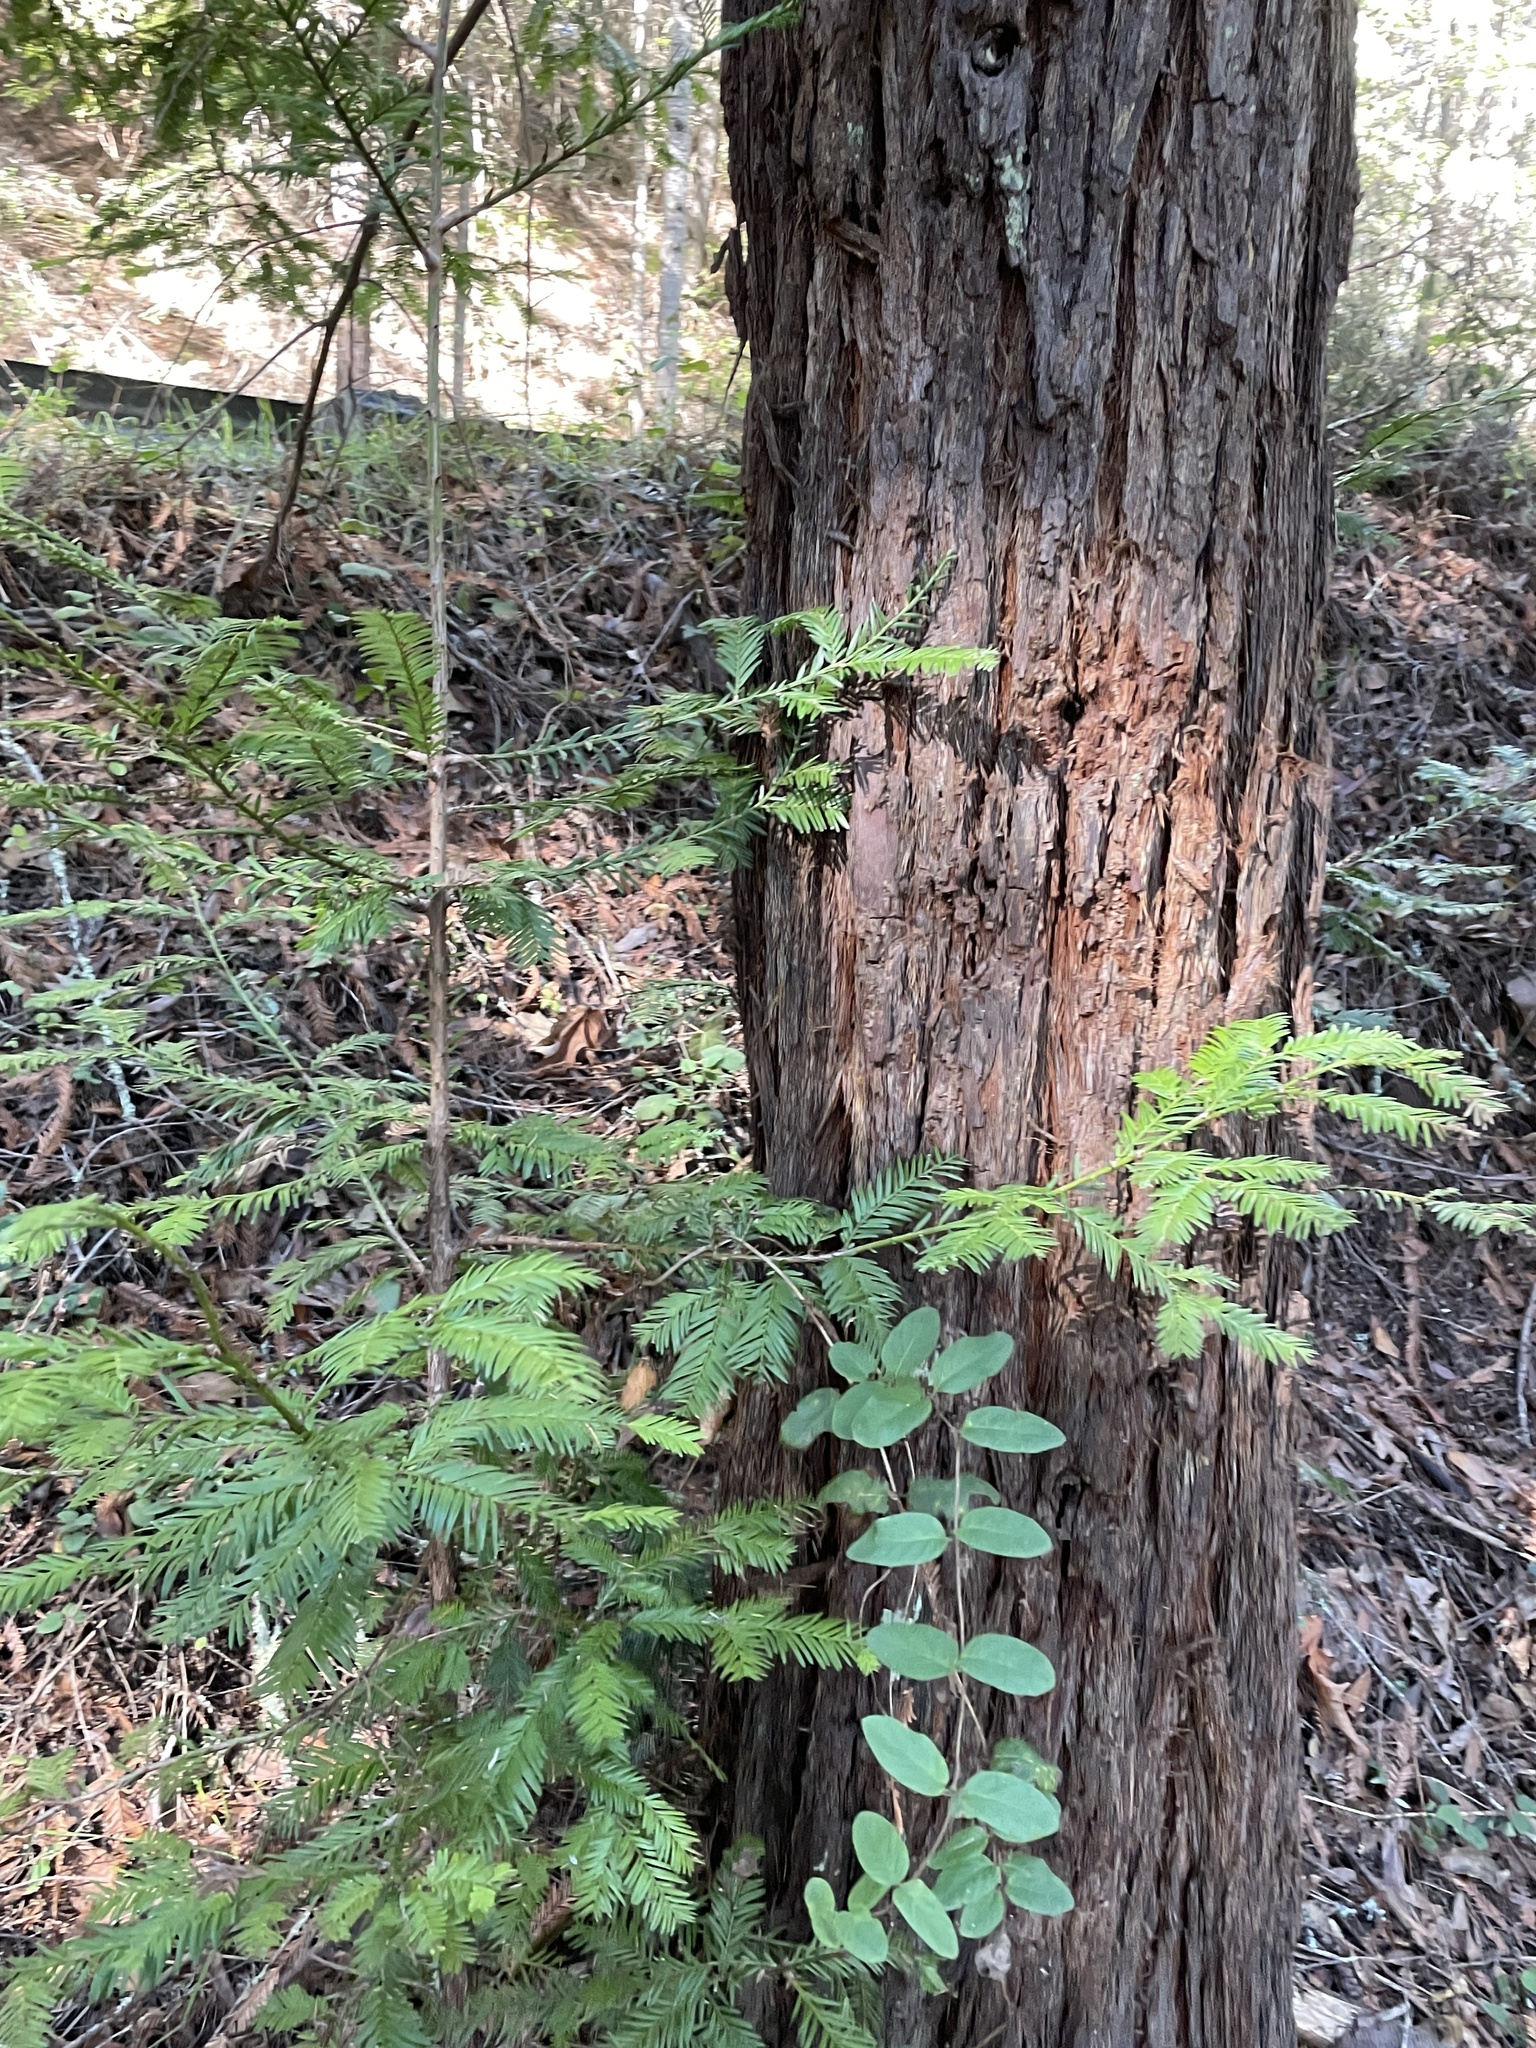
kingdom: Plantae
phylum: Tracheophyta
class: Pinopsida
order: Pinales
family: Cupressaceae
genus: Sequoia
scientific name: Sequoia sempervirens
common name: Coast redwood
